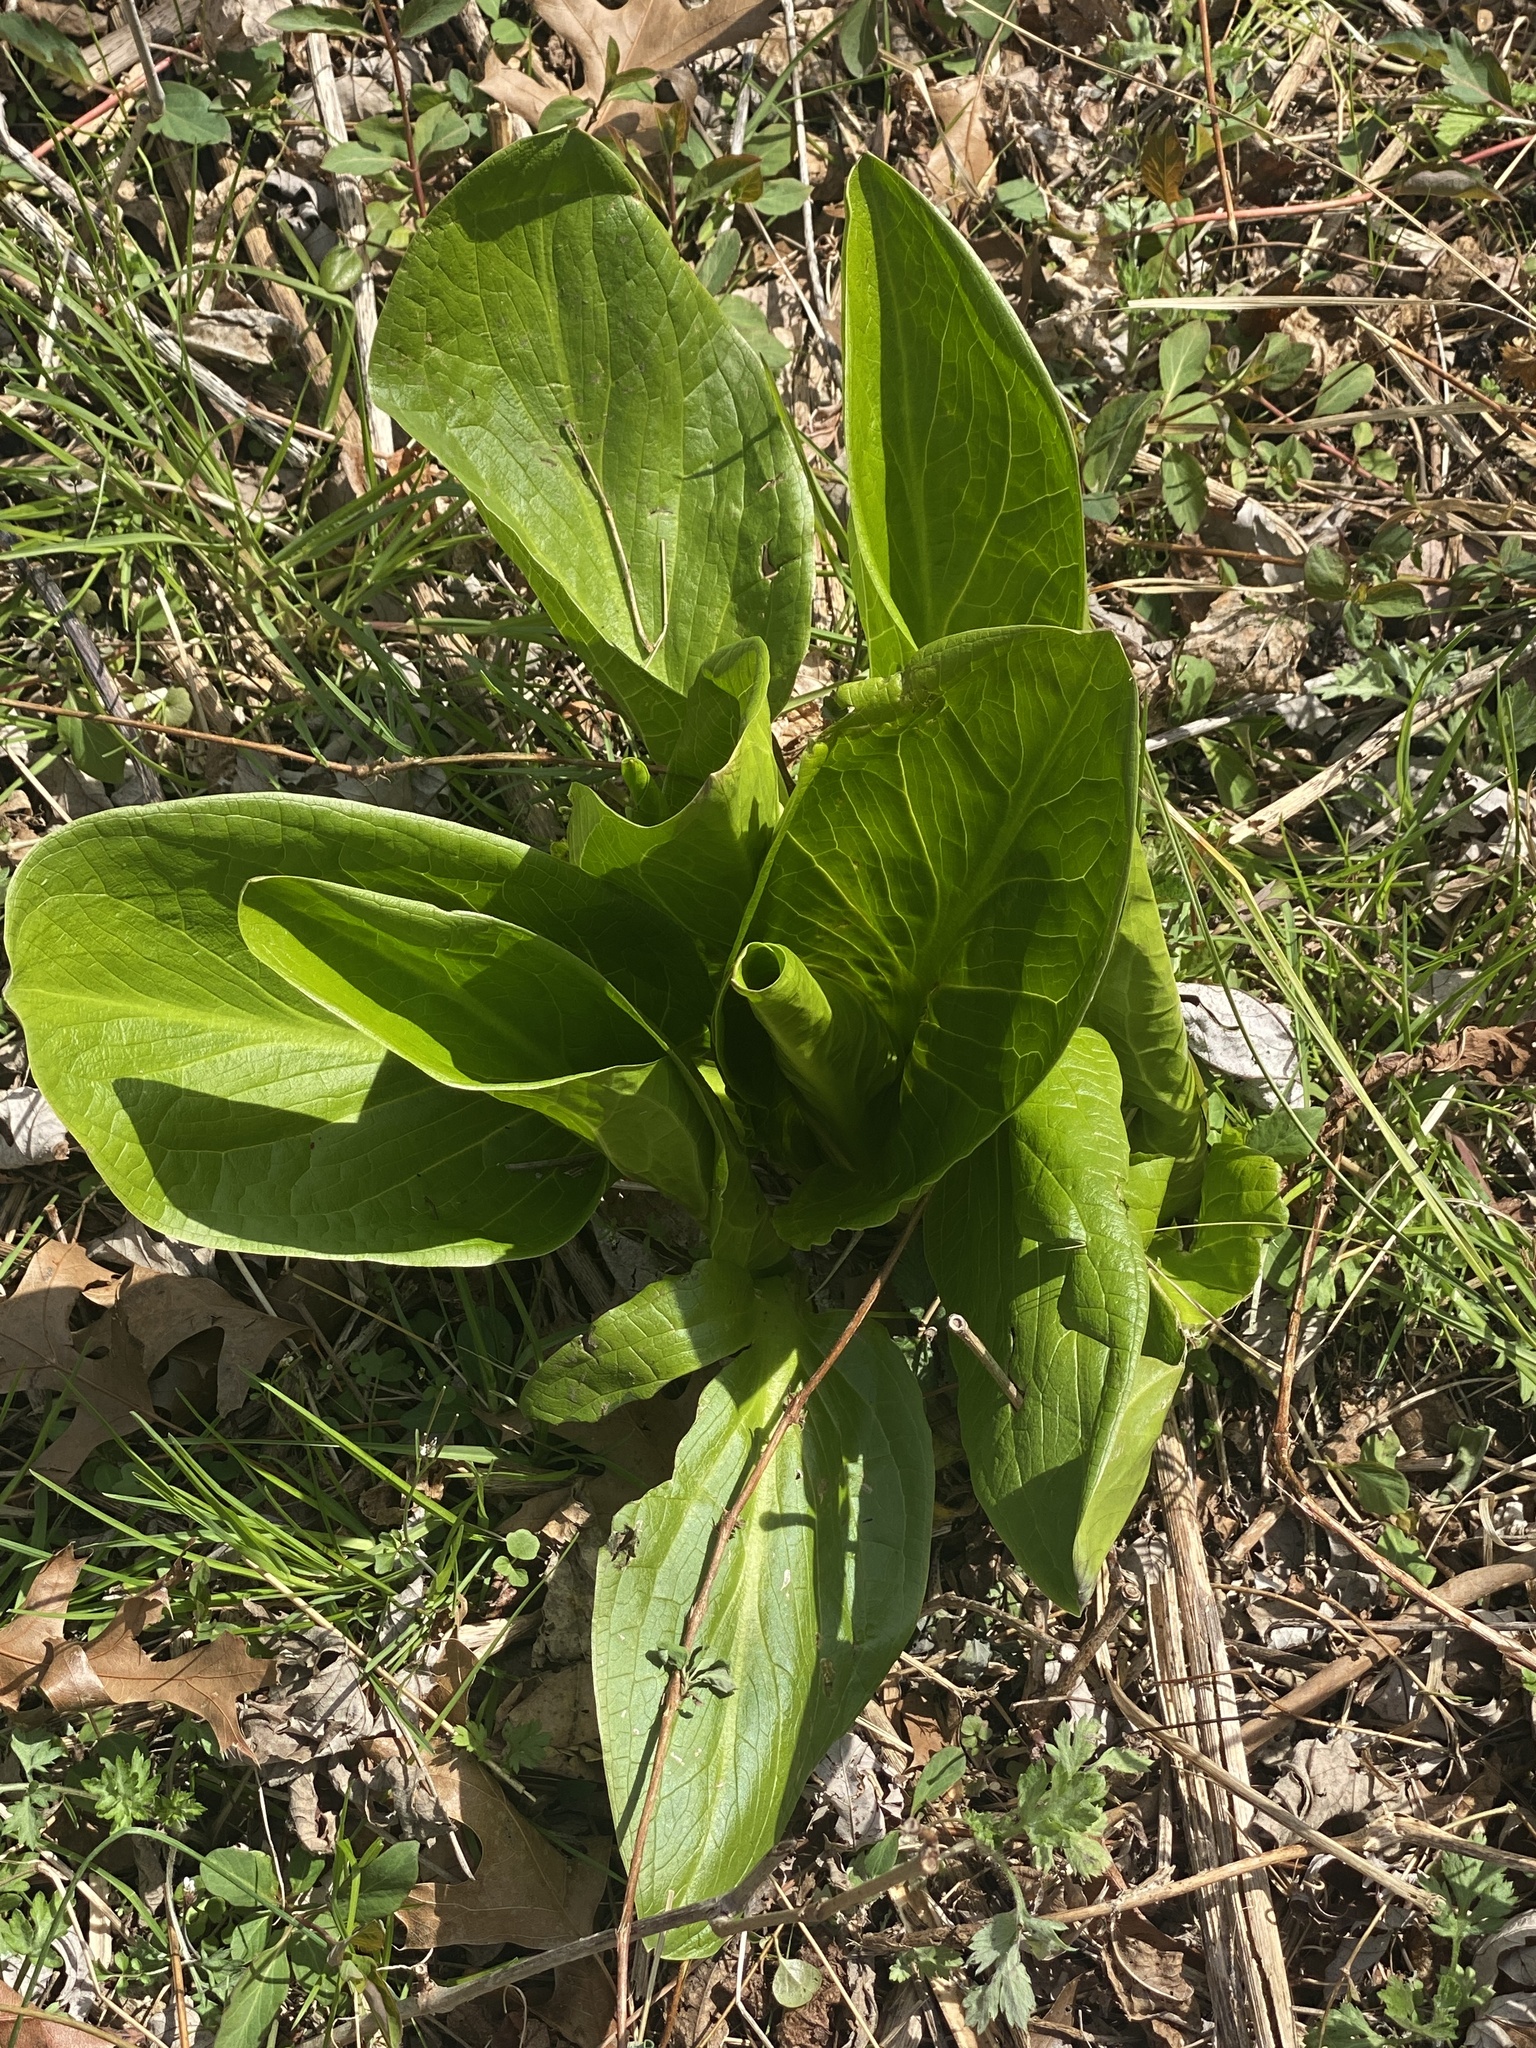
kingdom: Plantae
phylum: Tracheophyta
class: Liliopsida
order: Alismatales
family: Araceae
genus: Symplocarpus
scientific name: Symplocarpus foetidus
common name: Eastern skunk cabbage
